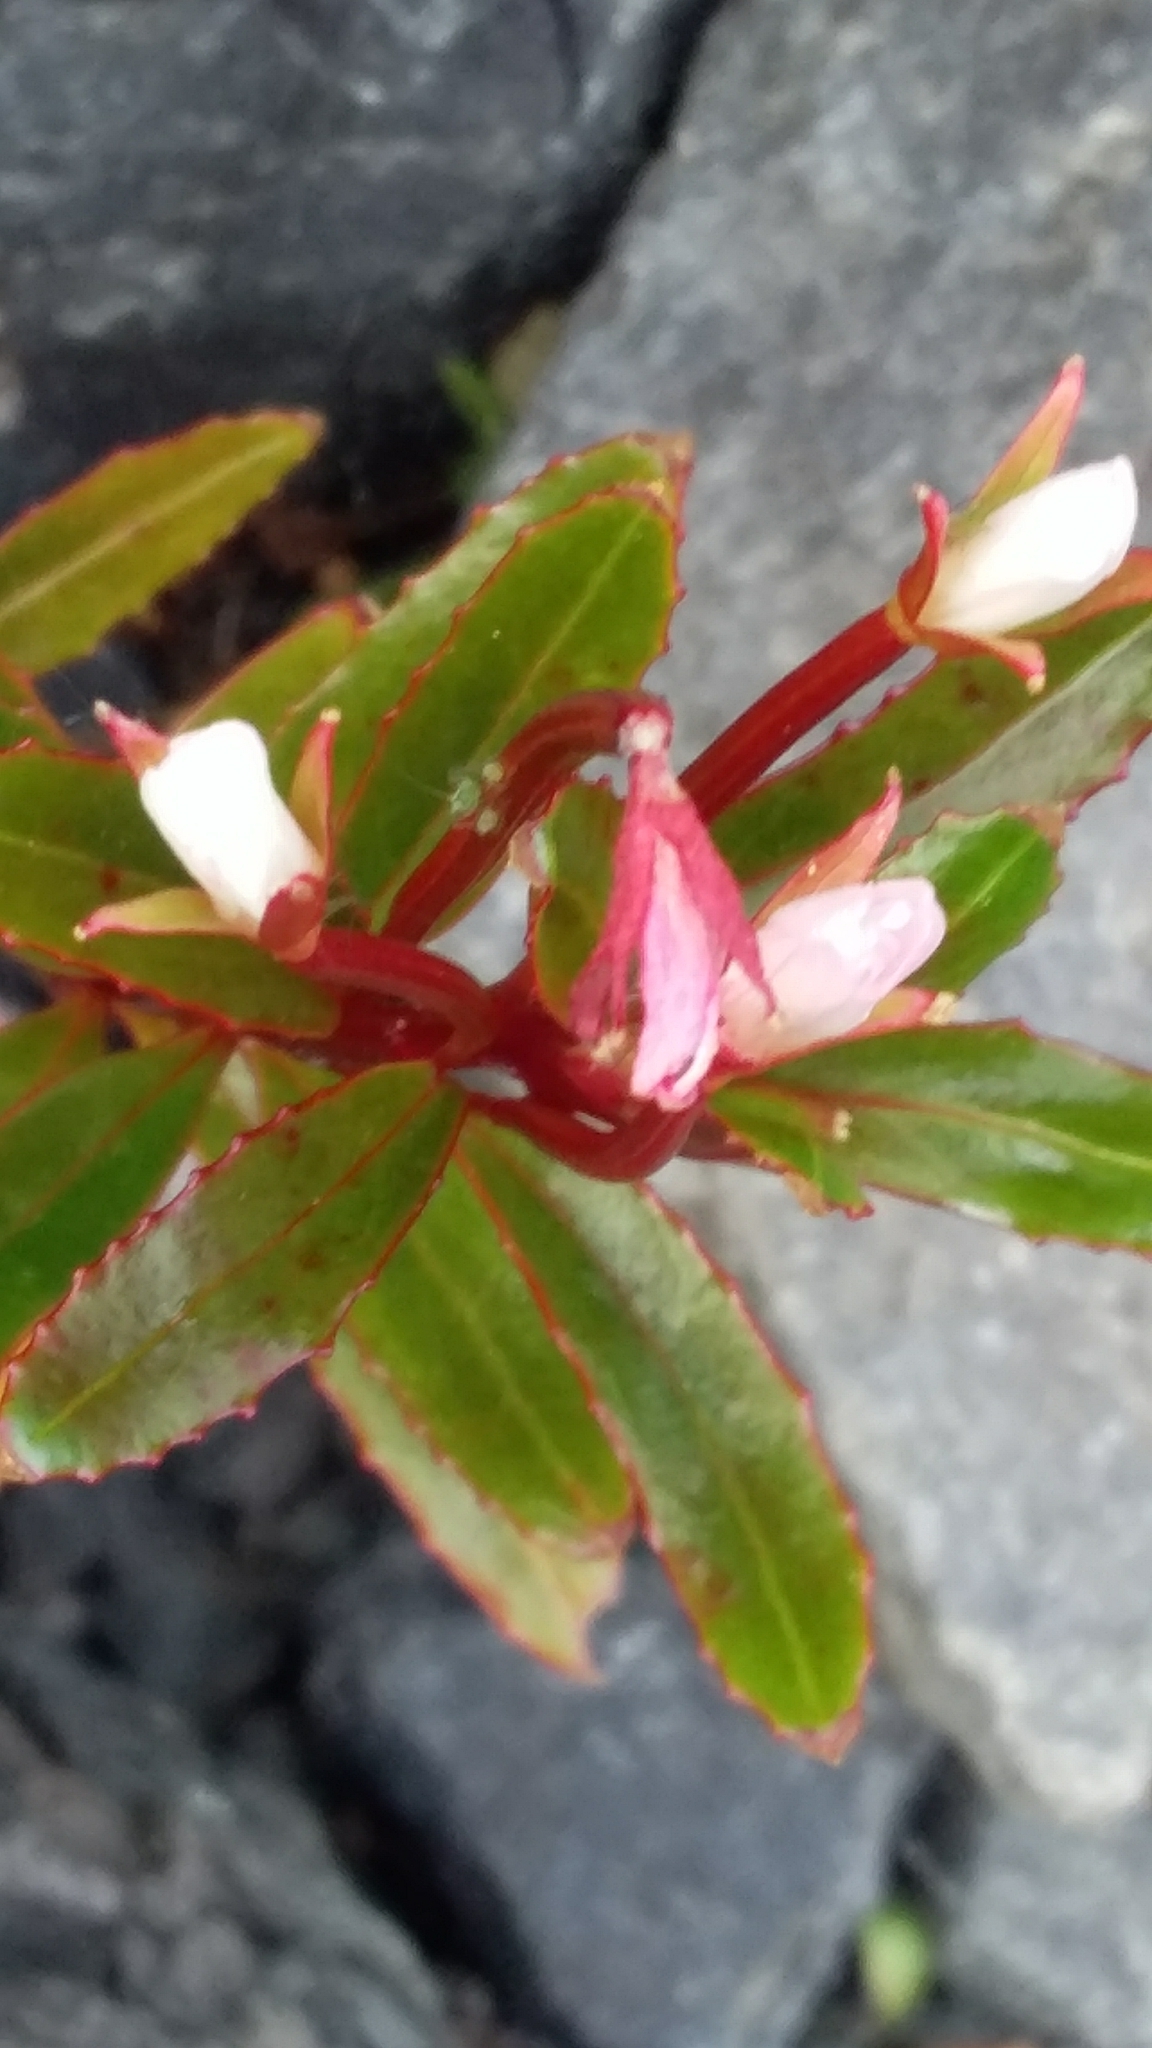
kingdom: Plantae
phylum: Tracheophyta
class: Magnoliopsida
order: Myrtales
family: Onagraceae
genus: Epilobium
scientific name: Epilobium brevipes
